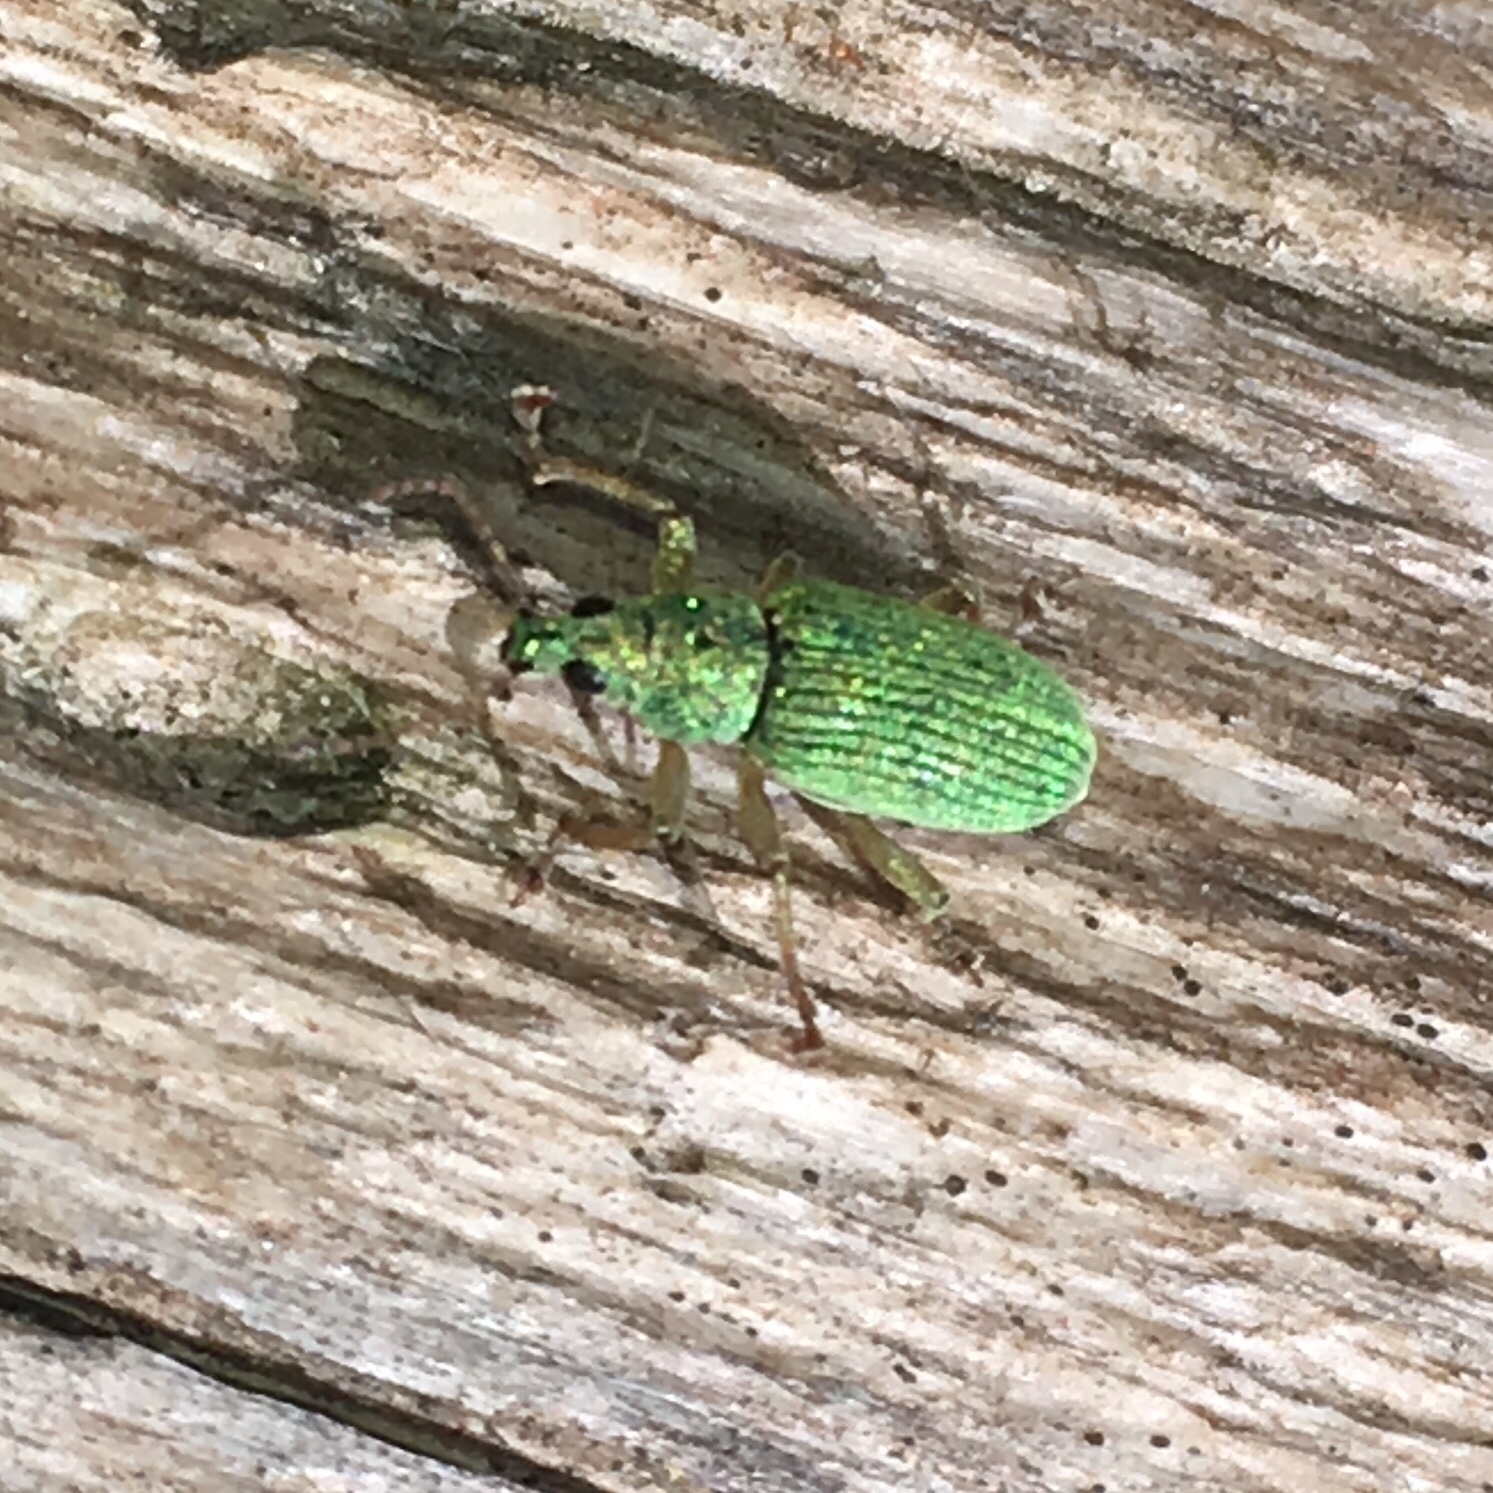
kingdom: Animalia
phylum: Arthropoda
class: Insecta
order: Coleoptera
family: Curculionidae
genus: Polydrusus
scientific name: Polydrusus formosus
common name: Weevil
